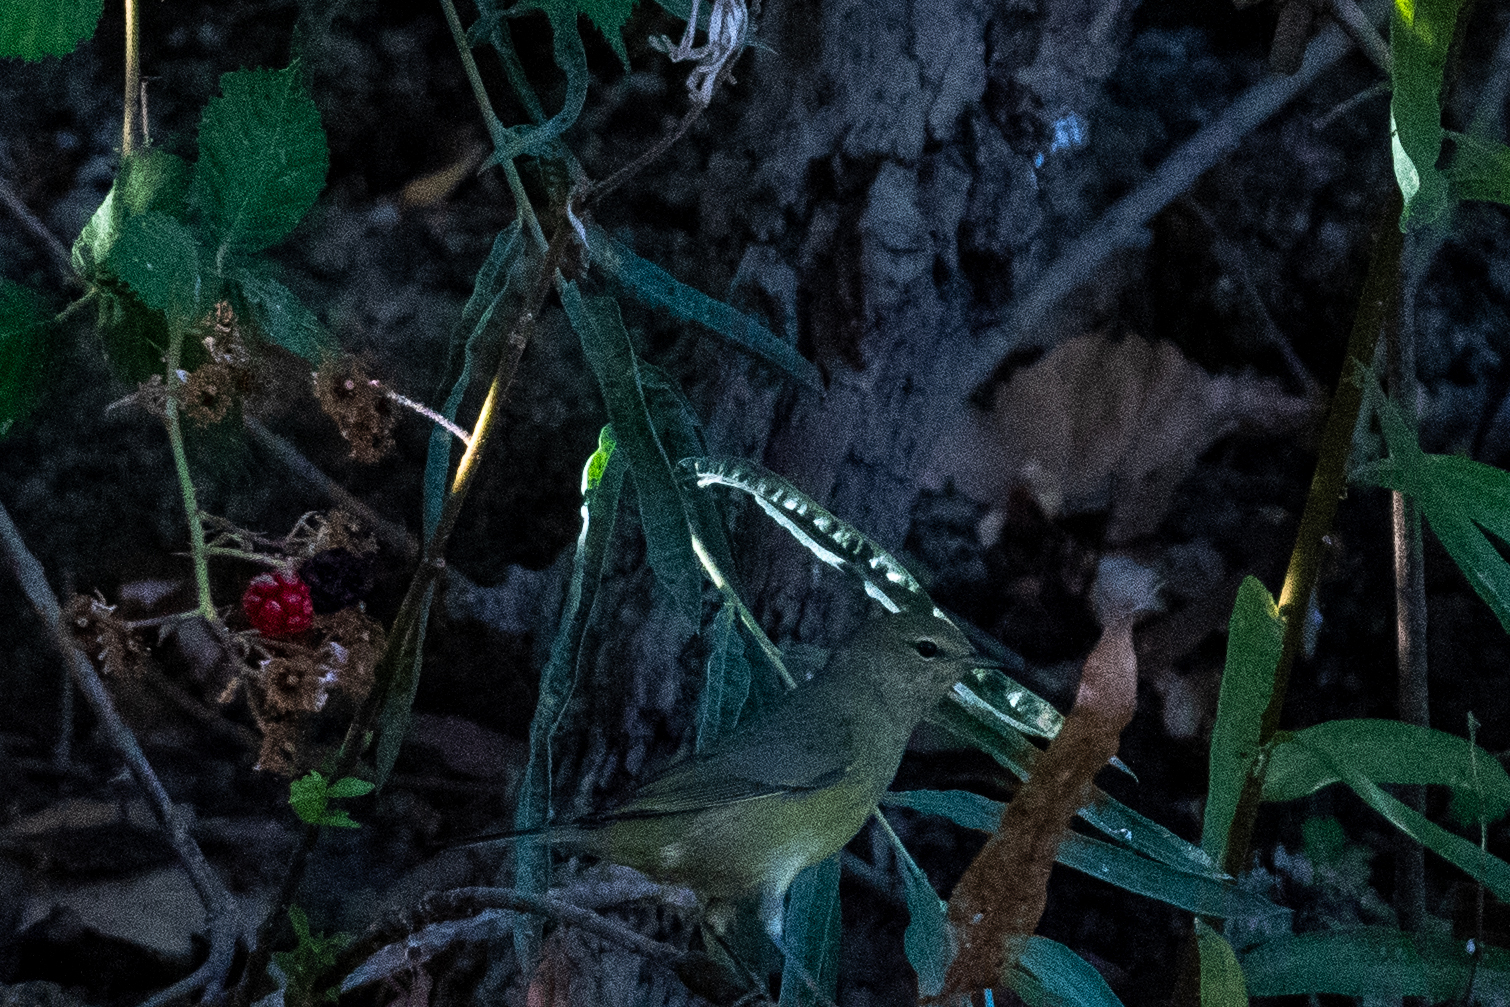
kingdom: Animalia
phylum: Chordata
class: Aves
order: Passeriformes
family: Parulidae
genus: Leiothlypis
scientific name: Leiothlypis celata
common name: Orange-crowned warbler
